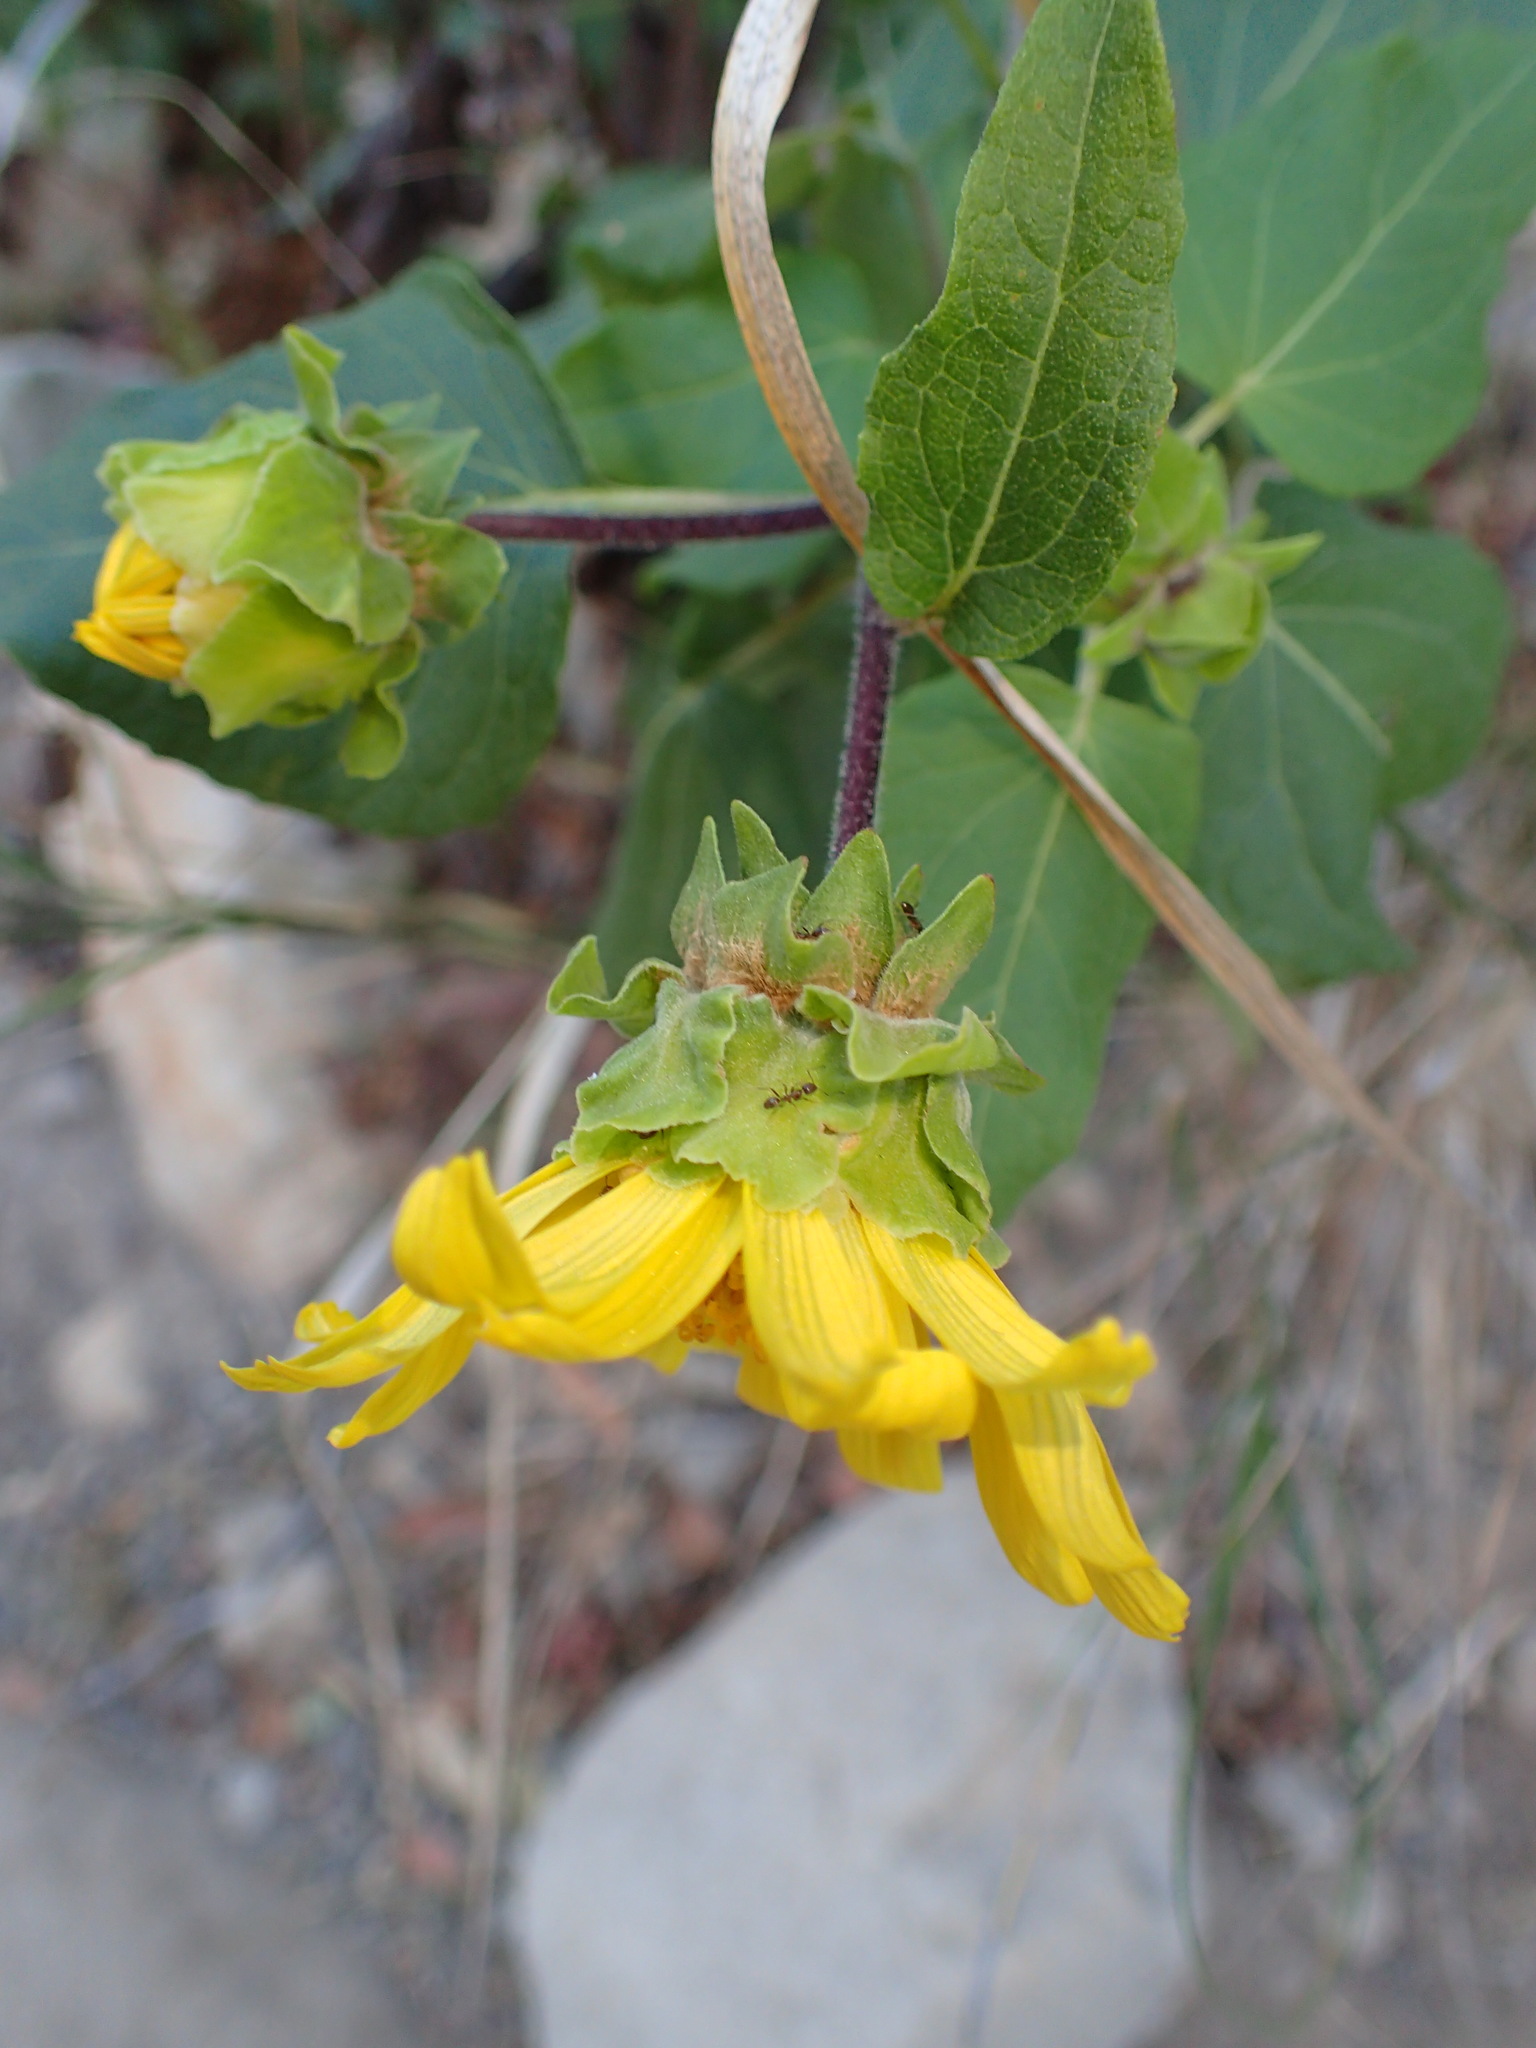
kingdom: Plantae
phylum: Tracheophyta
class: Magnoliopsida
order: Asterales
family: Asteraceae
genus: Venegasia
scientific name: Venegasia carpesioides
